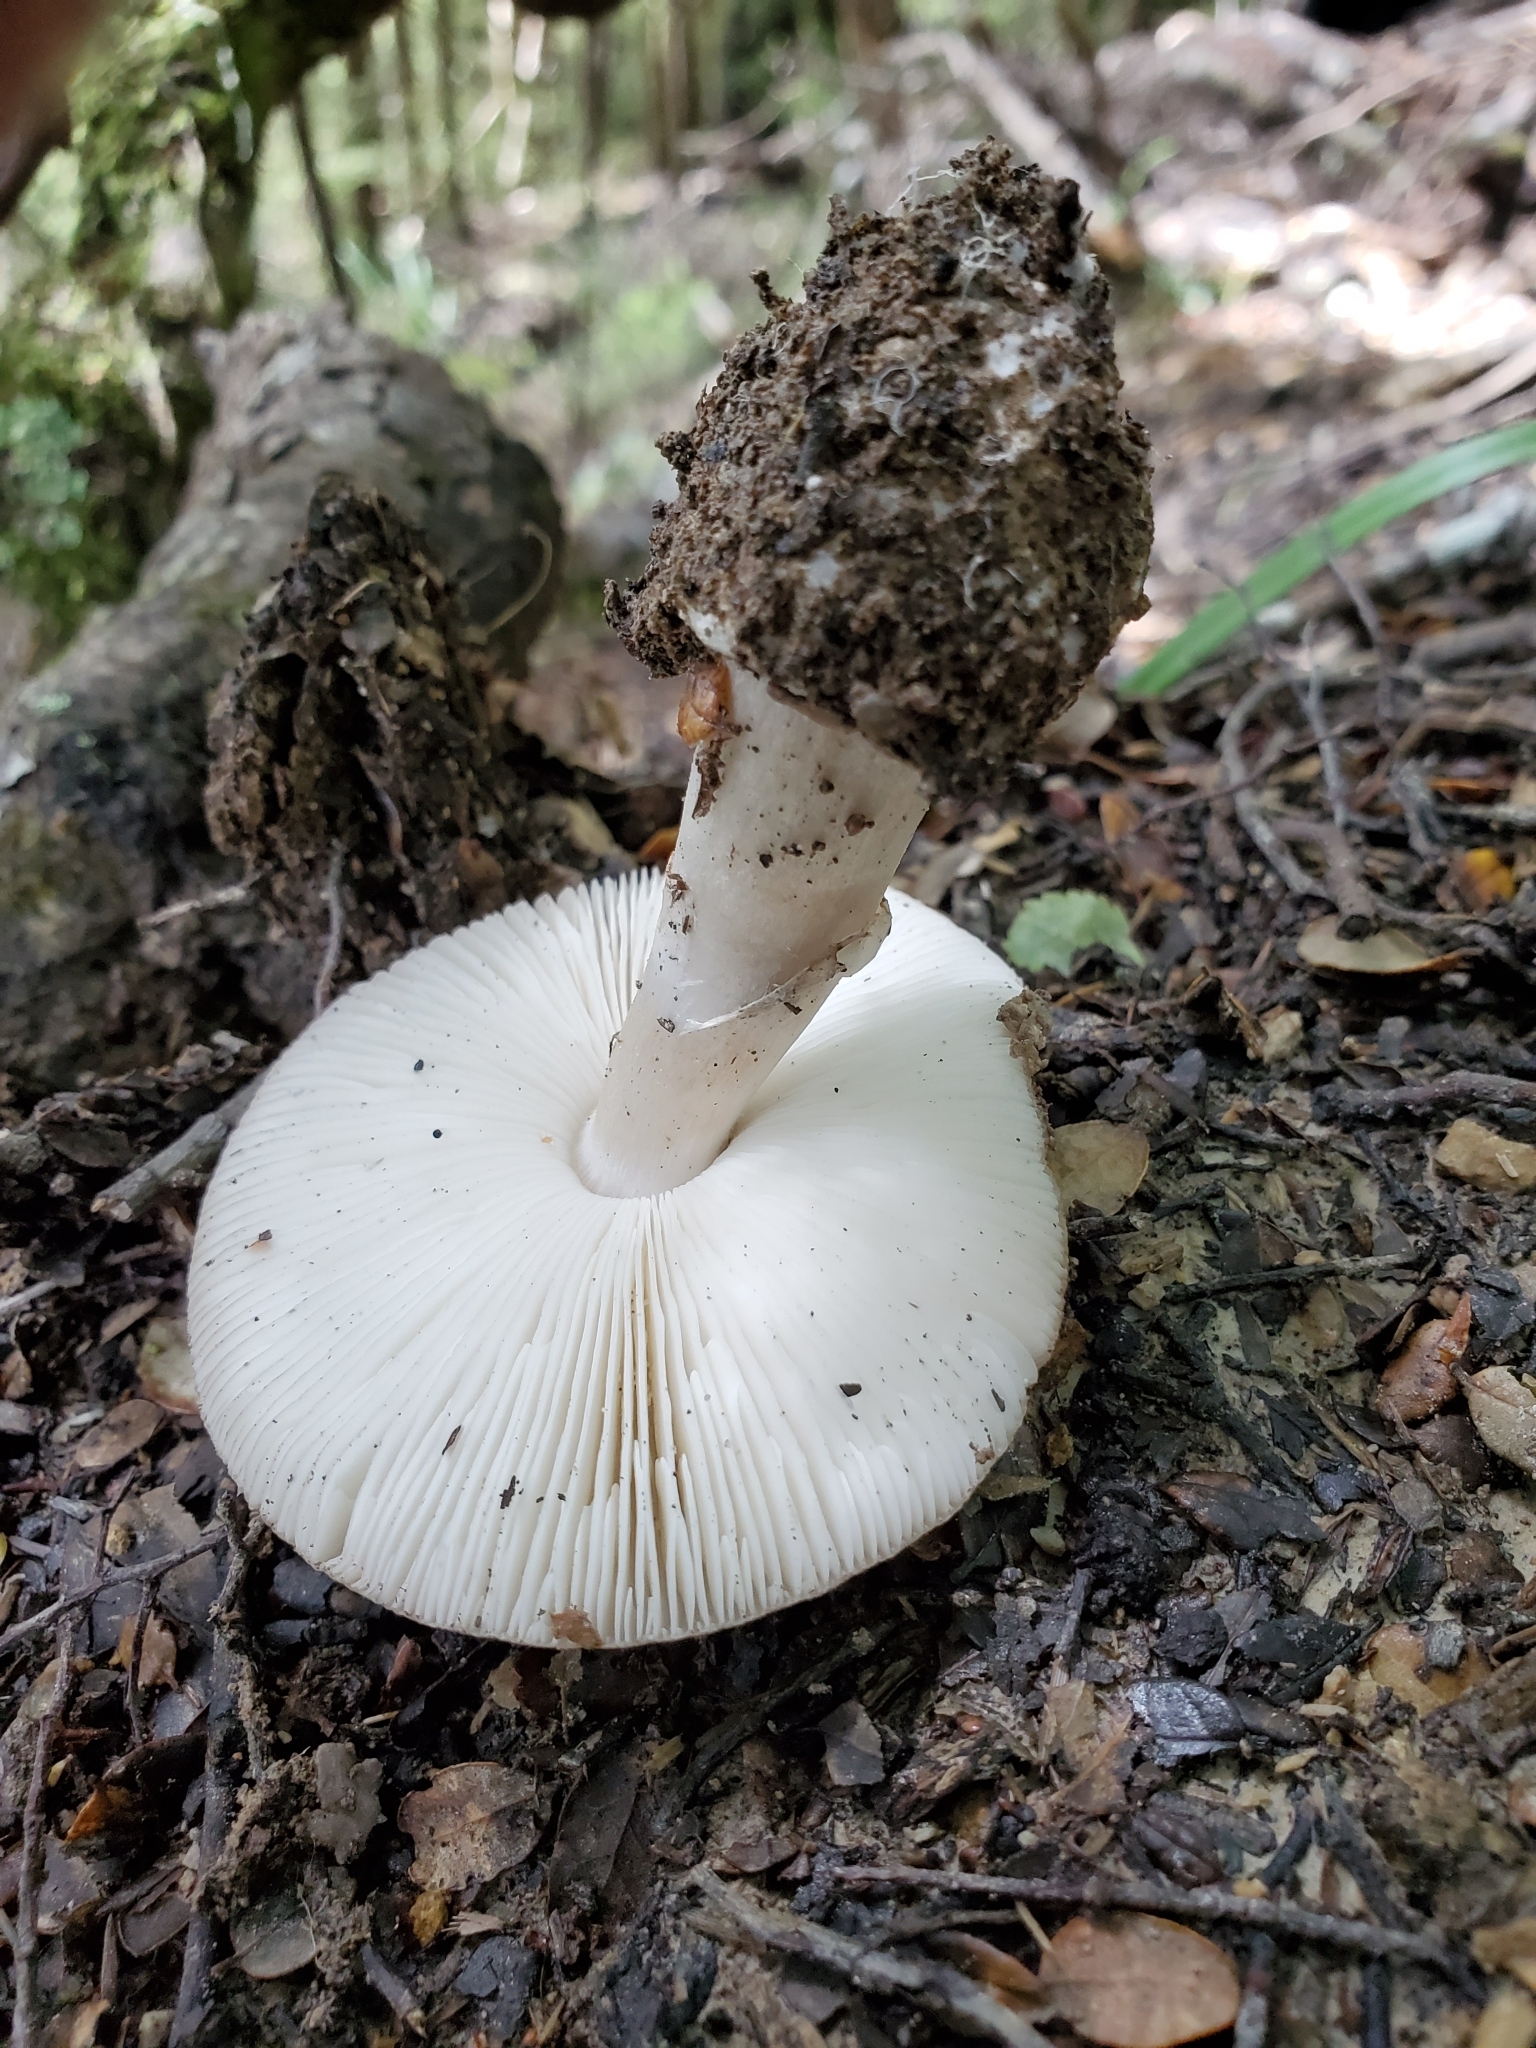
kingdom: Fungi
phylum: Basidiomycota
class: Agaricomycetes
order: Agaricales
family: Amanitaceae
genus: Amanita
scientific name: Amanita karea
